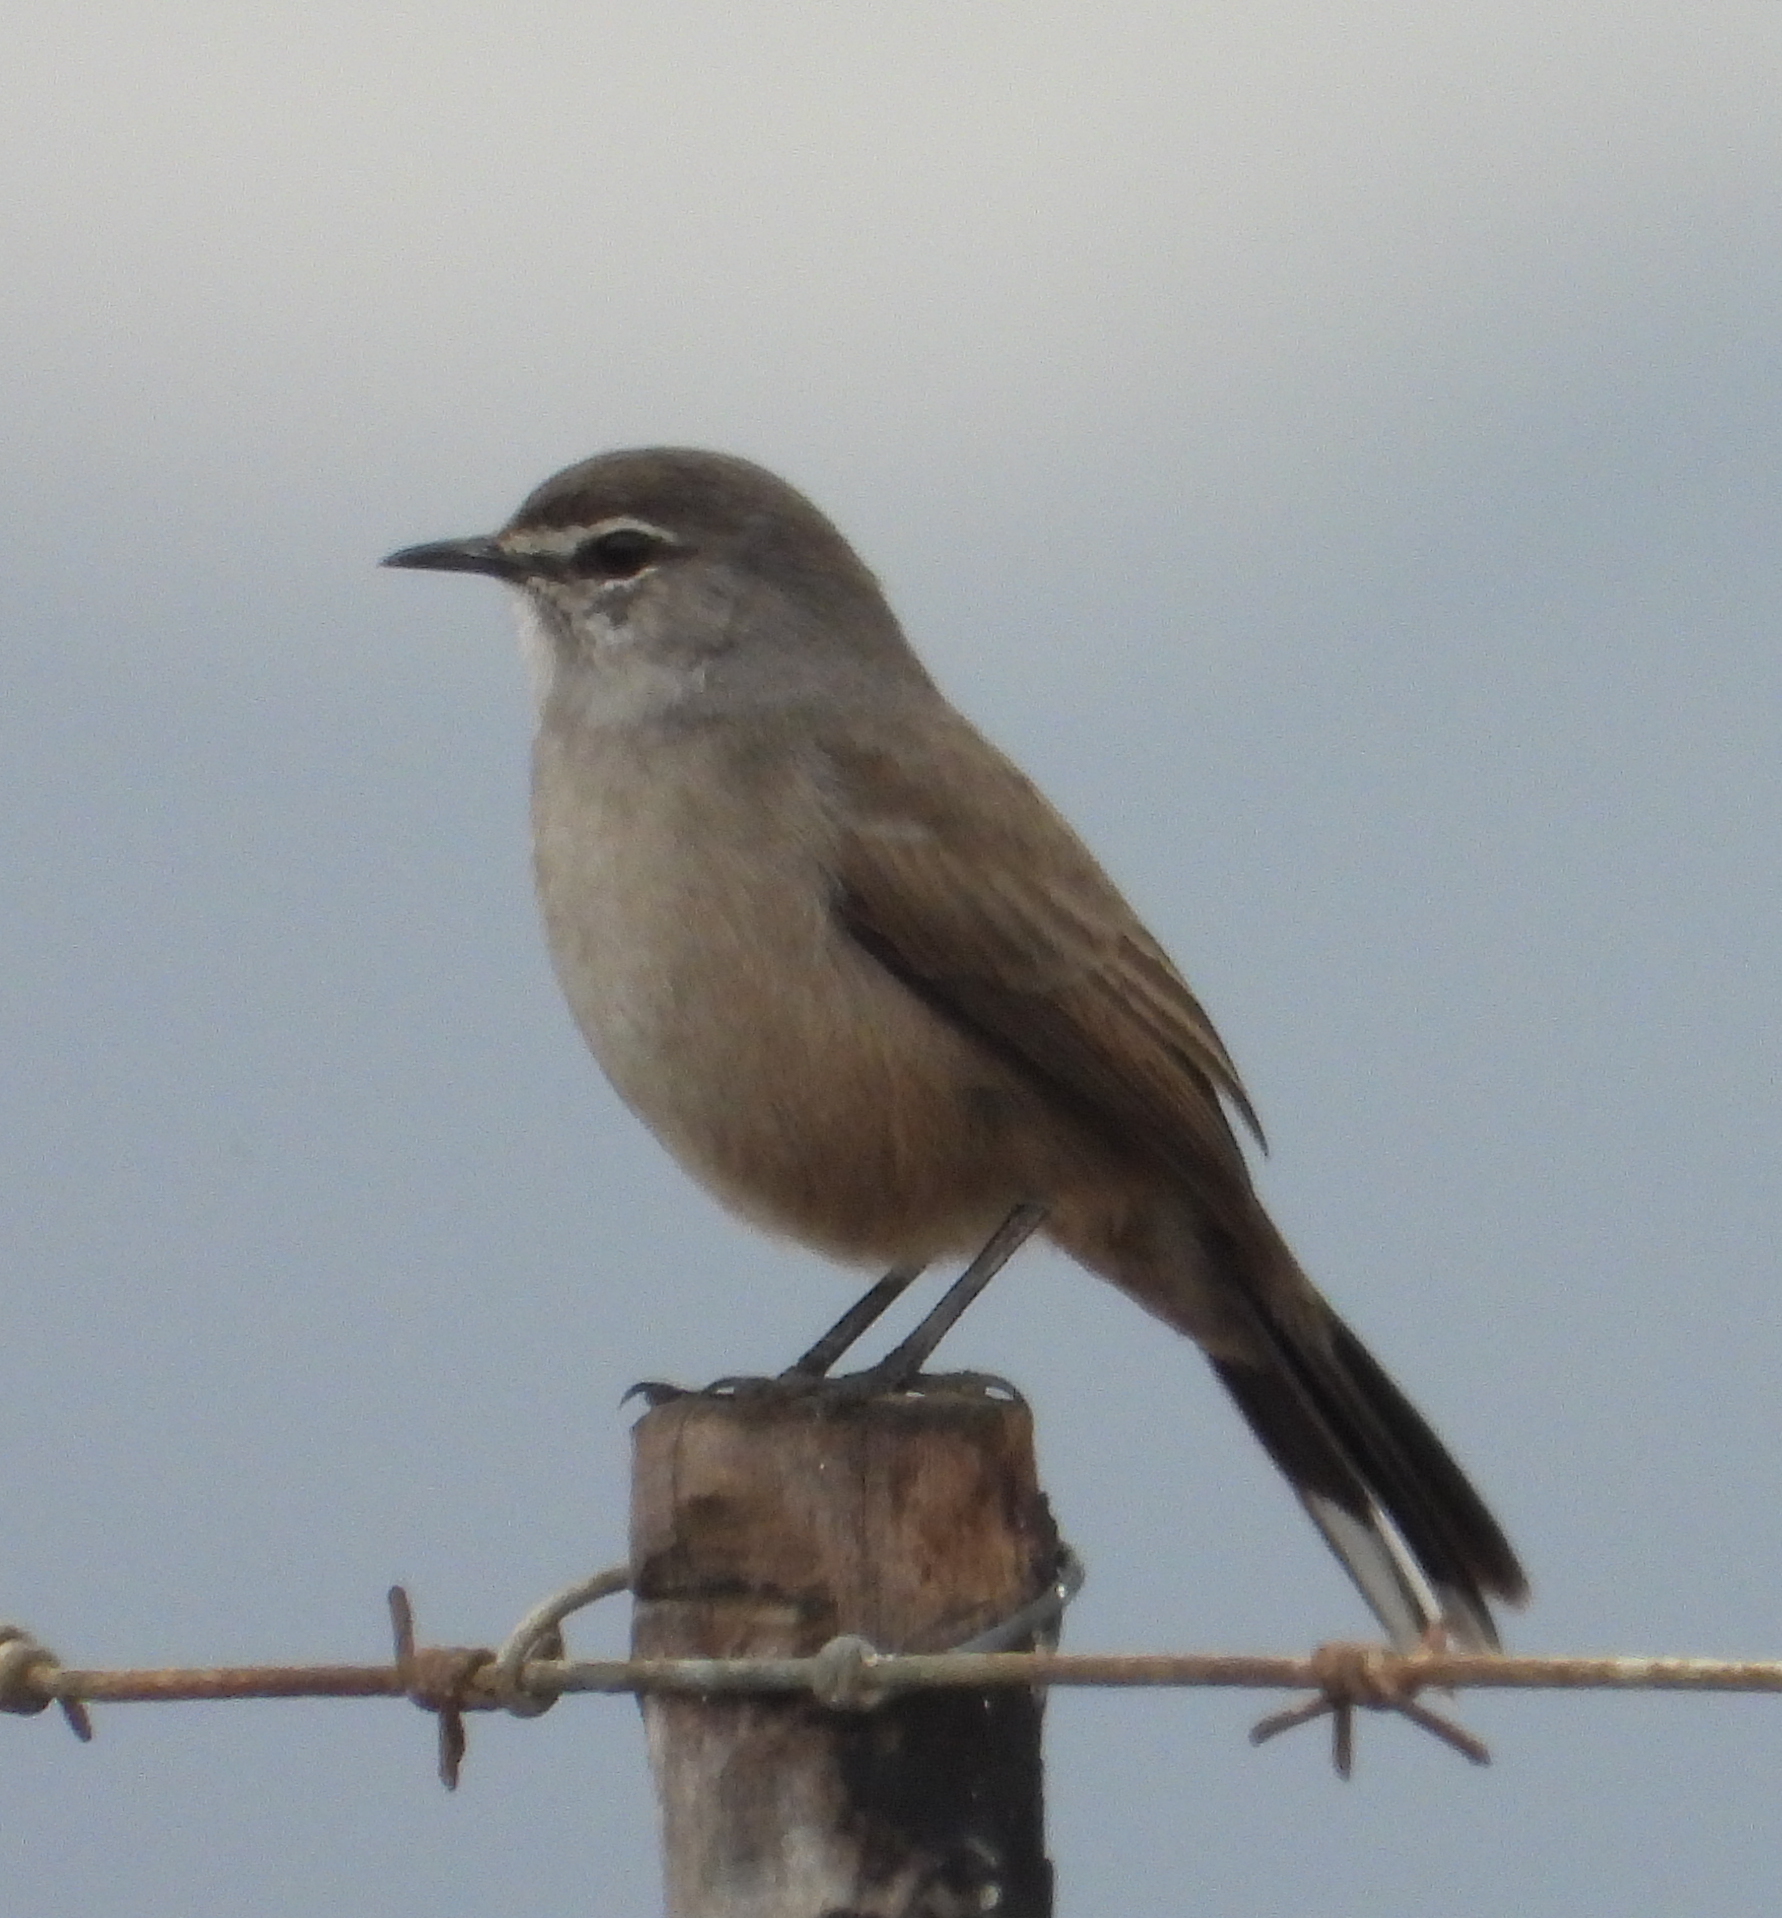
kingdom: Animalia
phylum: Chordata
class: Aves
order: Passeriformes
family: Muscicapidae
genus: Erythropygia
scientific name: Erythropygia coryphoeus
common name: Karoo scrub robin
